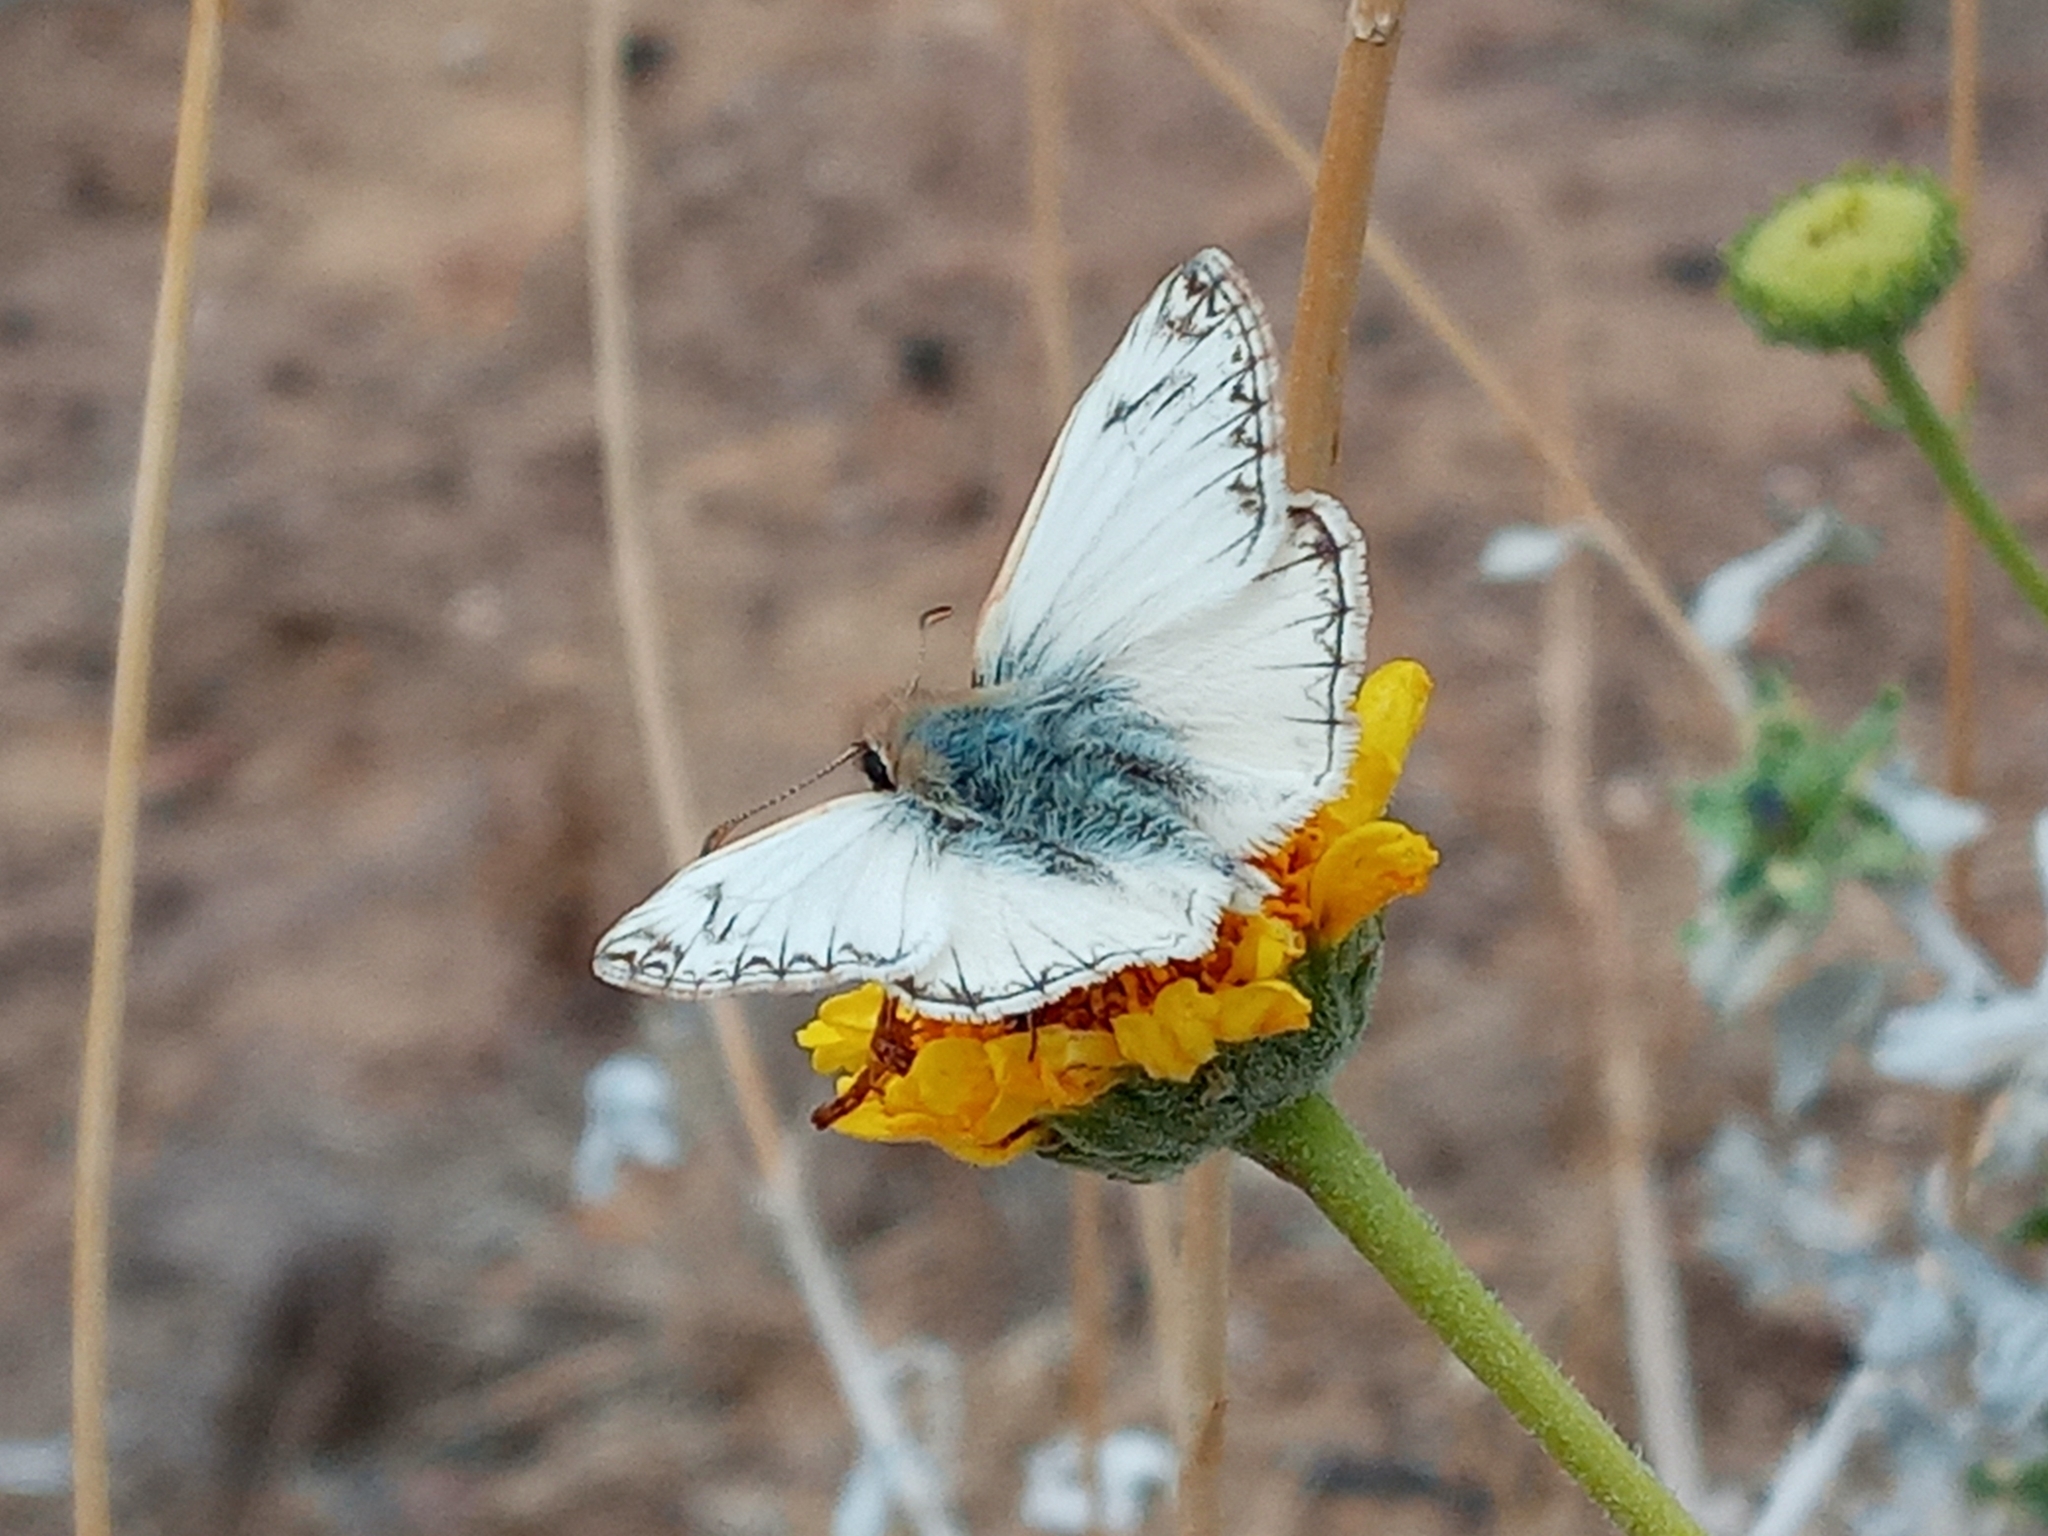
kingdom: Animalia
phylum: Arthropoda
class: Insecta
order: Lepidoptera
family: Hesperiidae
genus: Heliopetes
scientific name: Heliopetes ericetorum
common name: Northern white-skipper
